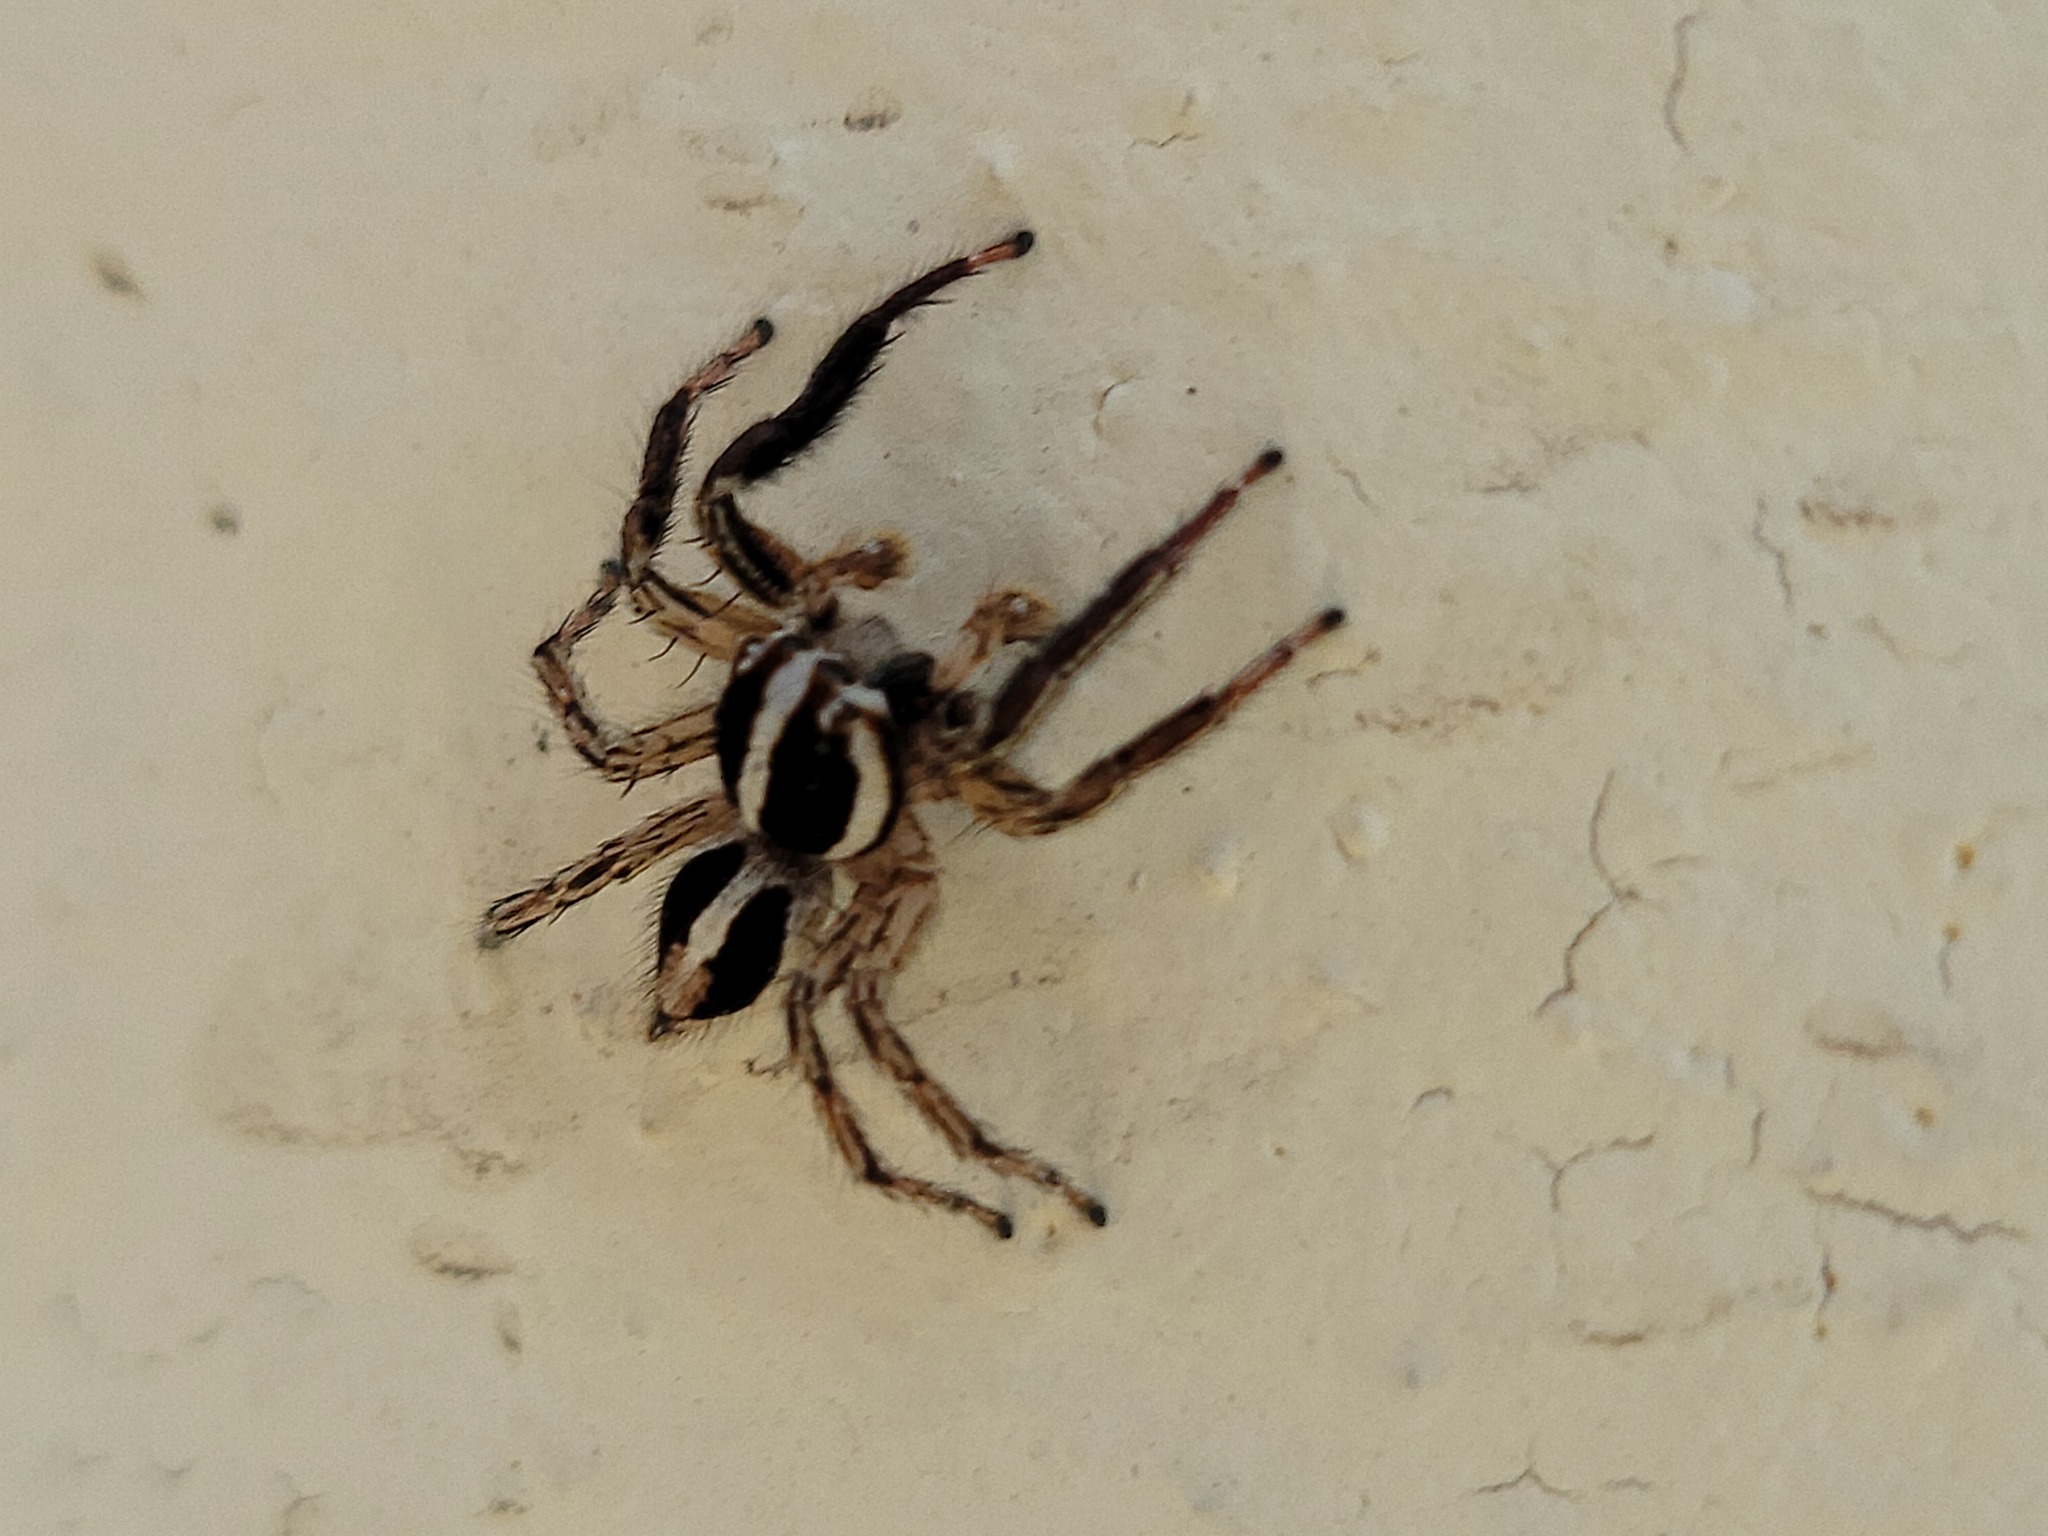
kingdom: Animalia
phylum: Arthropoda
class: Arachnida
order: Araneae
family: Salticidae
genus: Plexippus
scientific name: Plexippus paykulli
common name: Pantropical jumper
